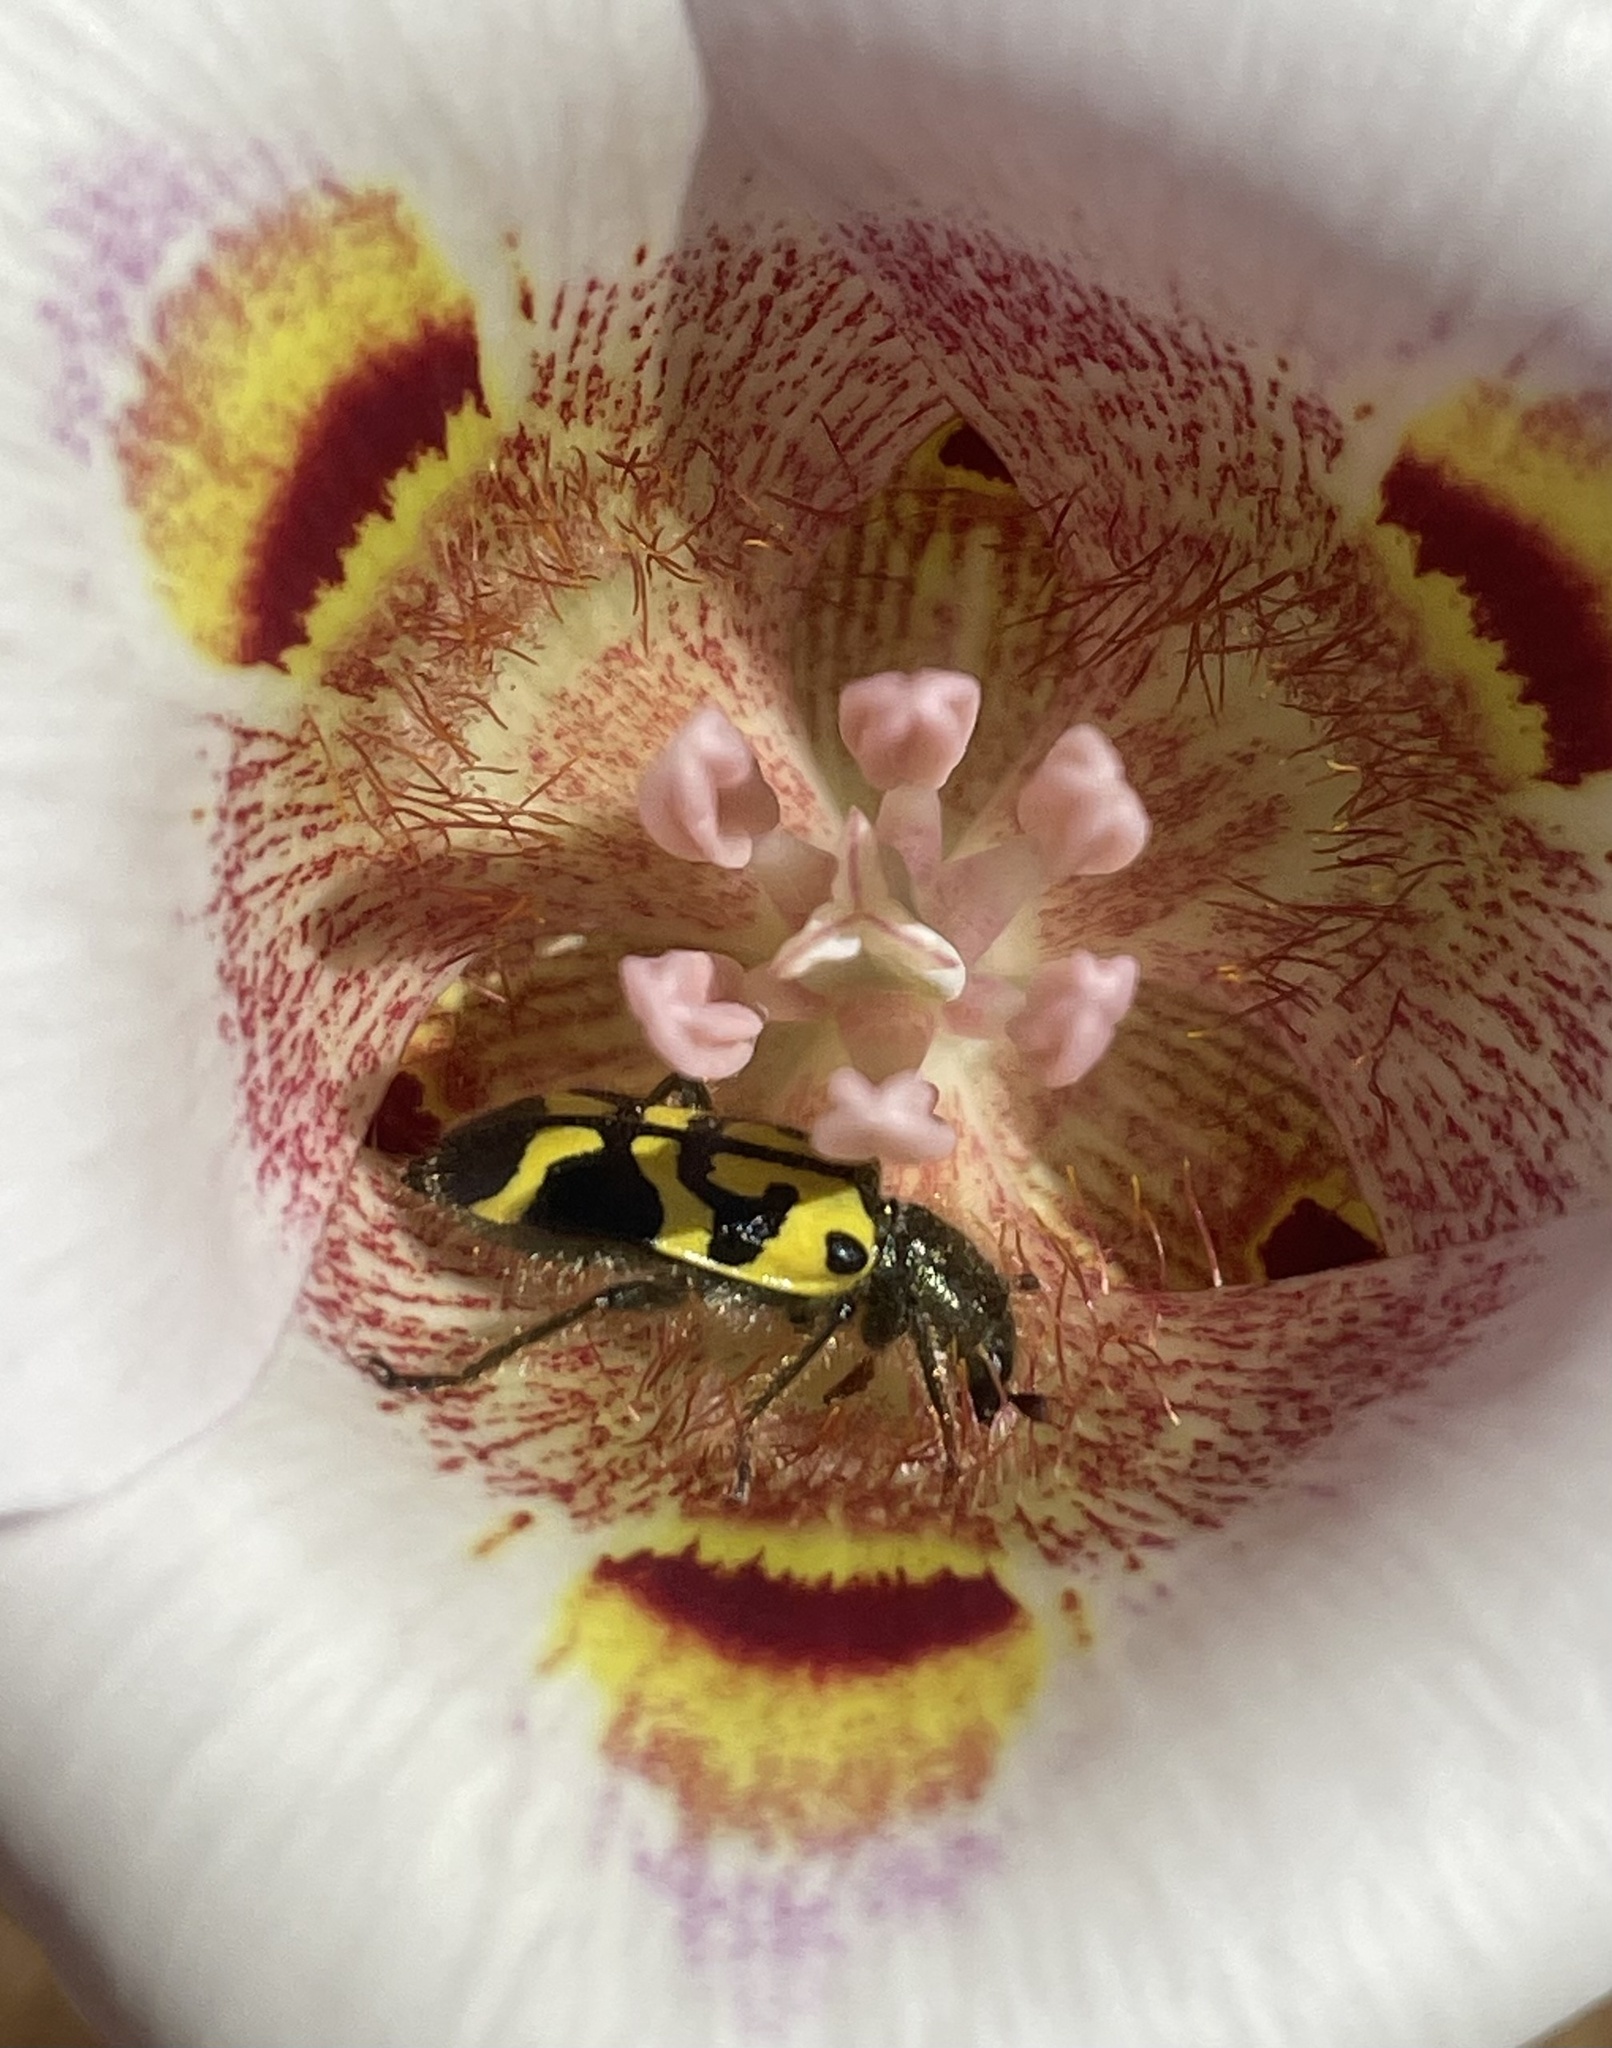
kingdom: Animalia
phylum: Arthropoda
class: Insecta
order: Coleoptera
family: Cleridae
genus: Trichodes
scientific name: Trichodes ornatus
